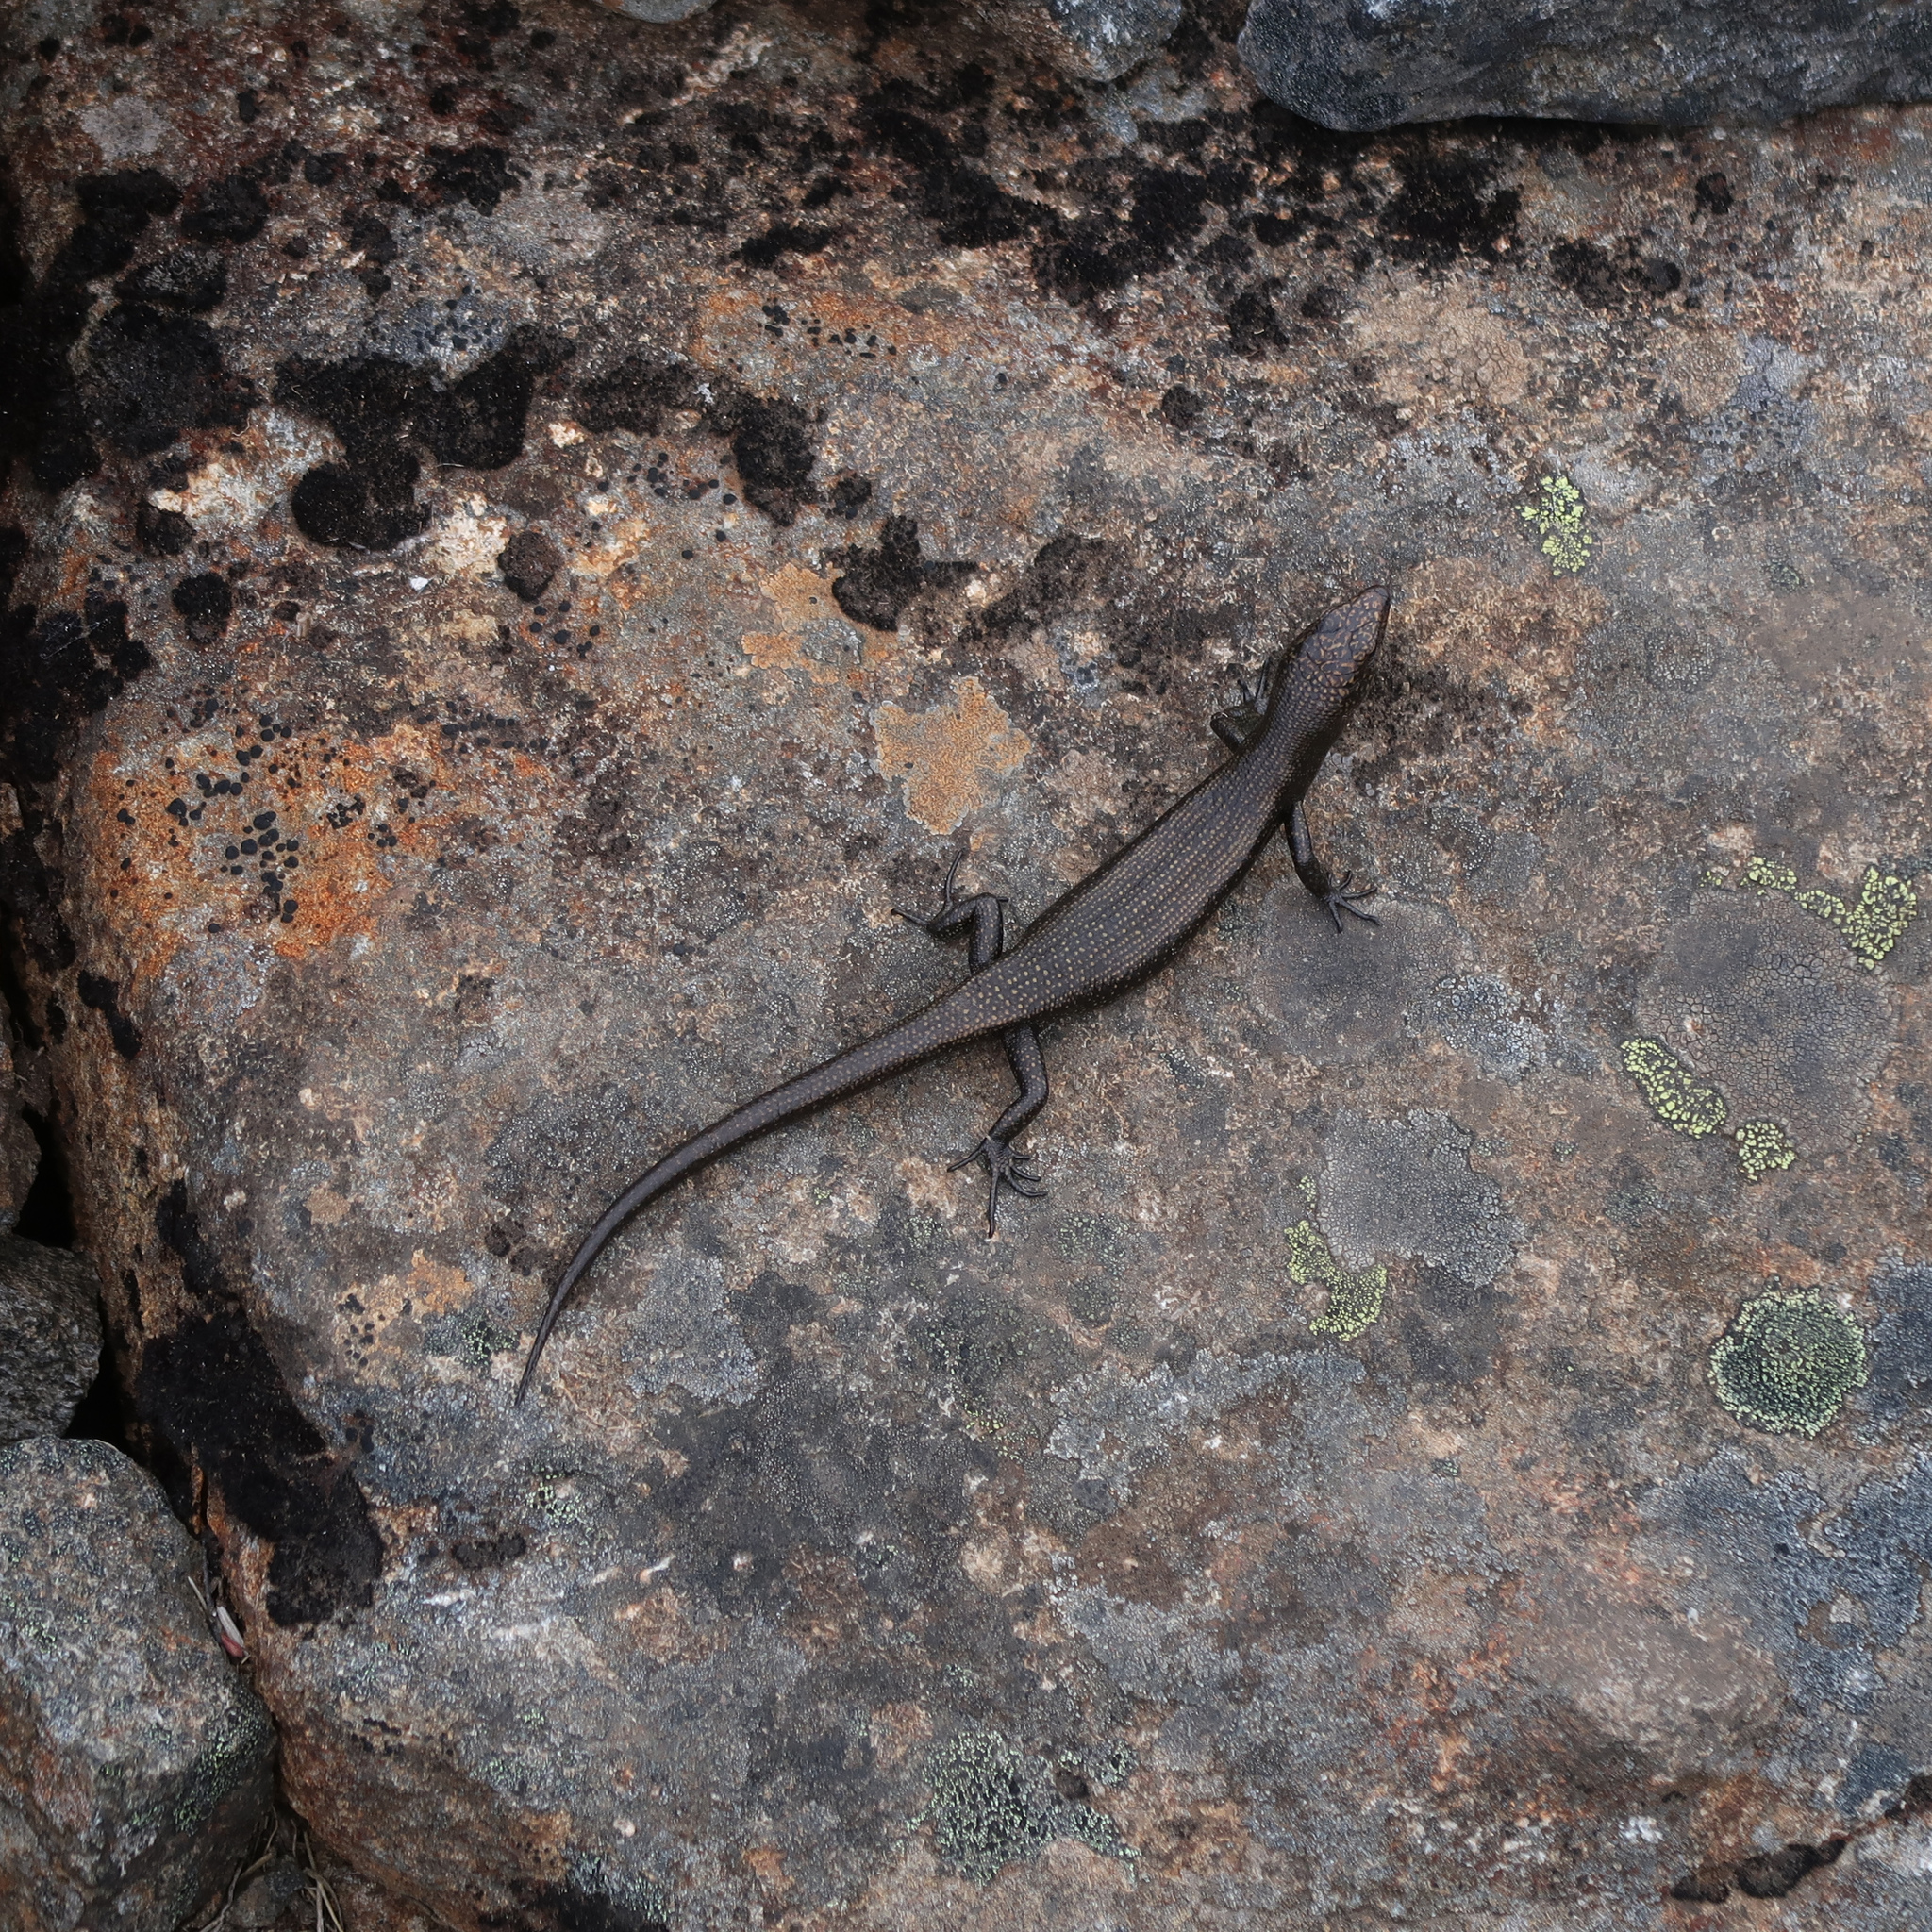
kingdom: Animalia
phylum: Chordata
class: Squamata
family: Scincidae
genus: Carinascincus
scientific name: Carinascincus greeni
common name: Alpine cool-skink
